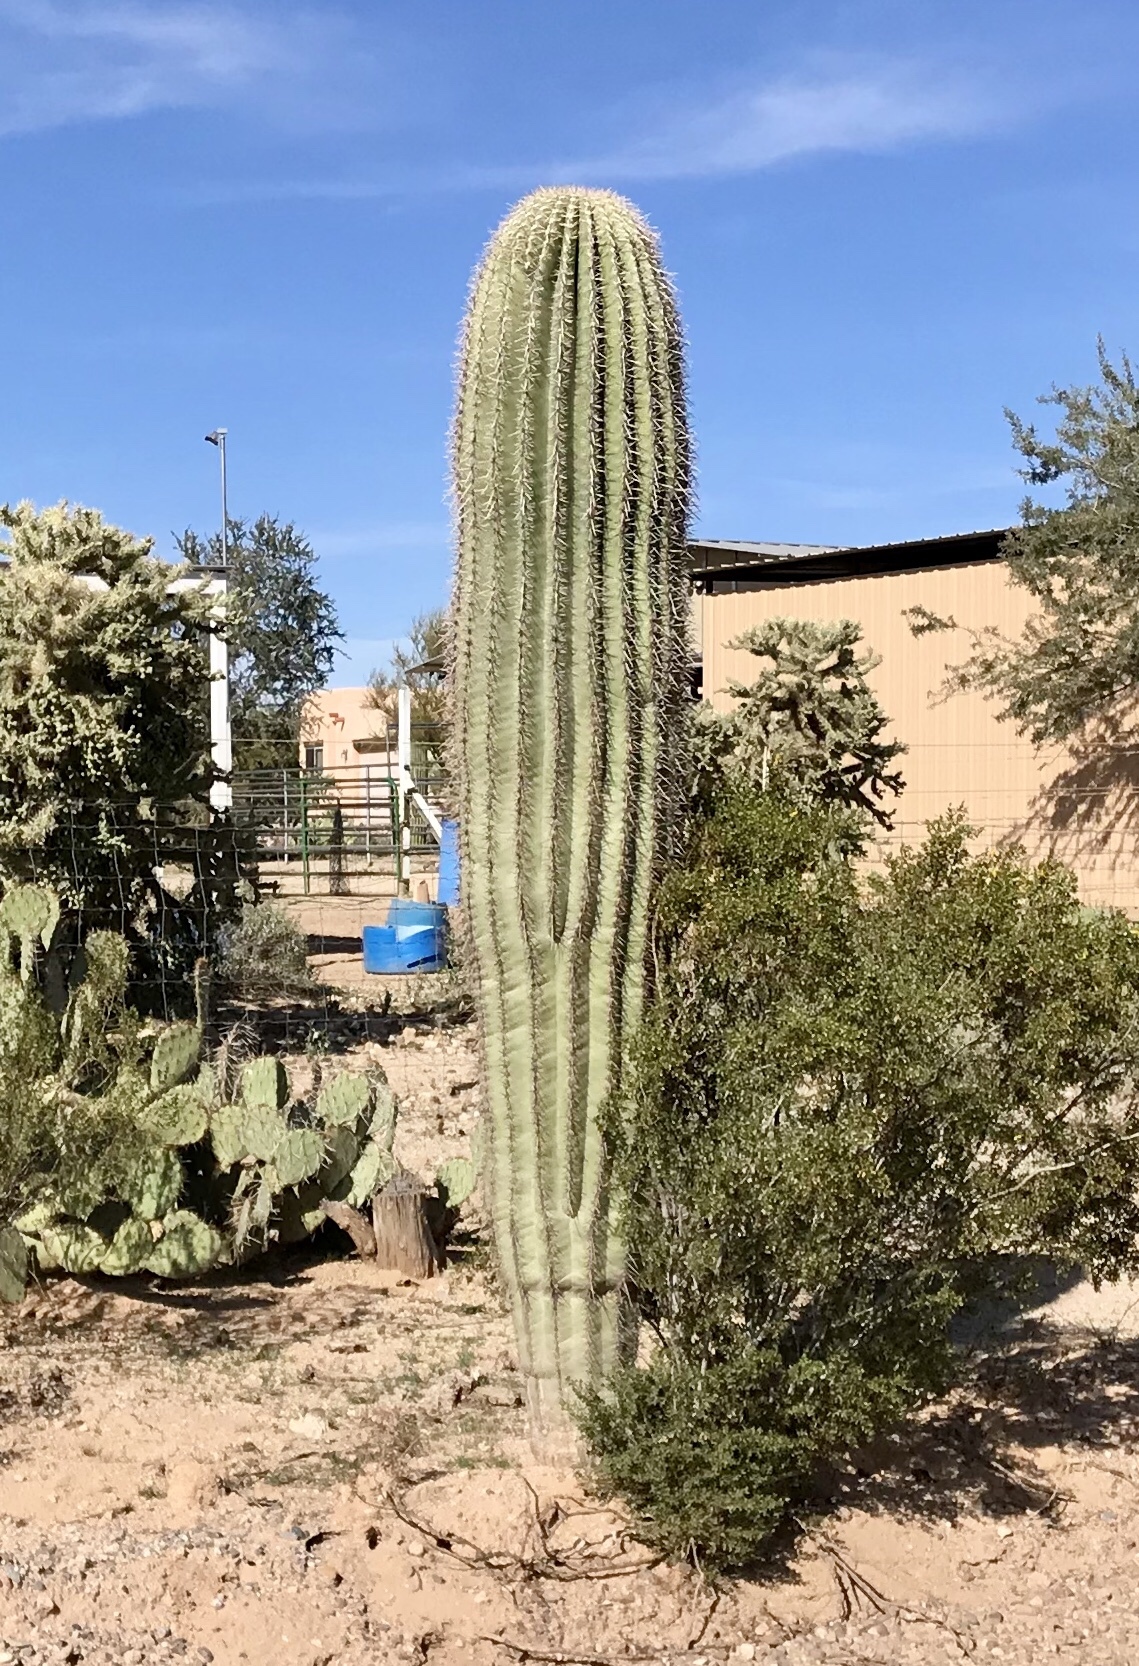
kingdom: Plantae
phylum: Tracheophyta
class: Magnoliopsida
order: Caryophyllales
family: Cactaceae
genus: Carnegiea
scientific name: Carnegiea gigantea
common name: Saguaro
